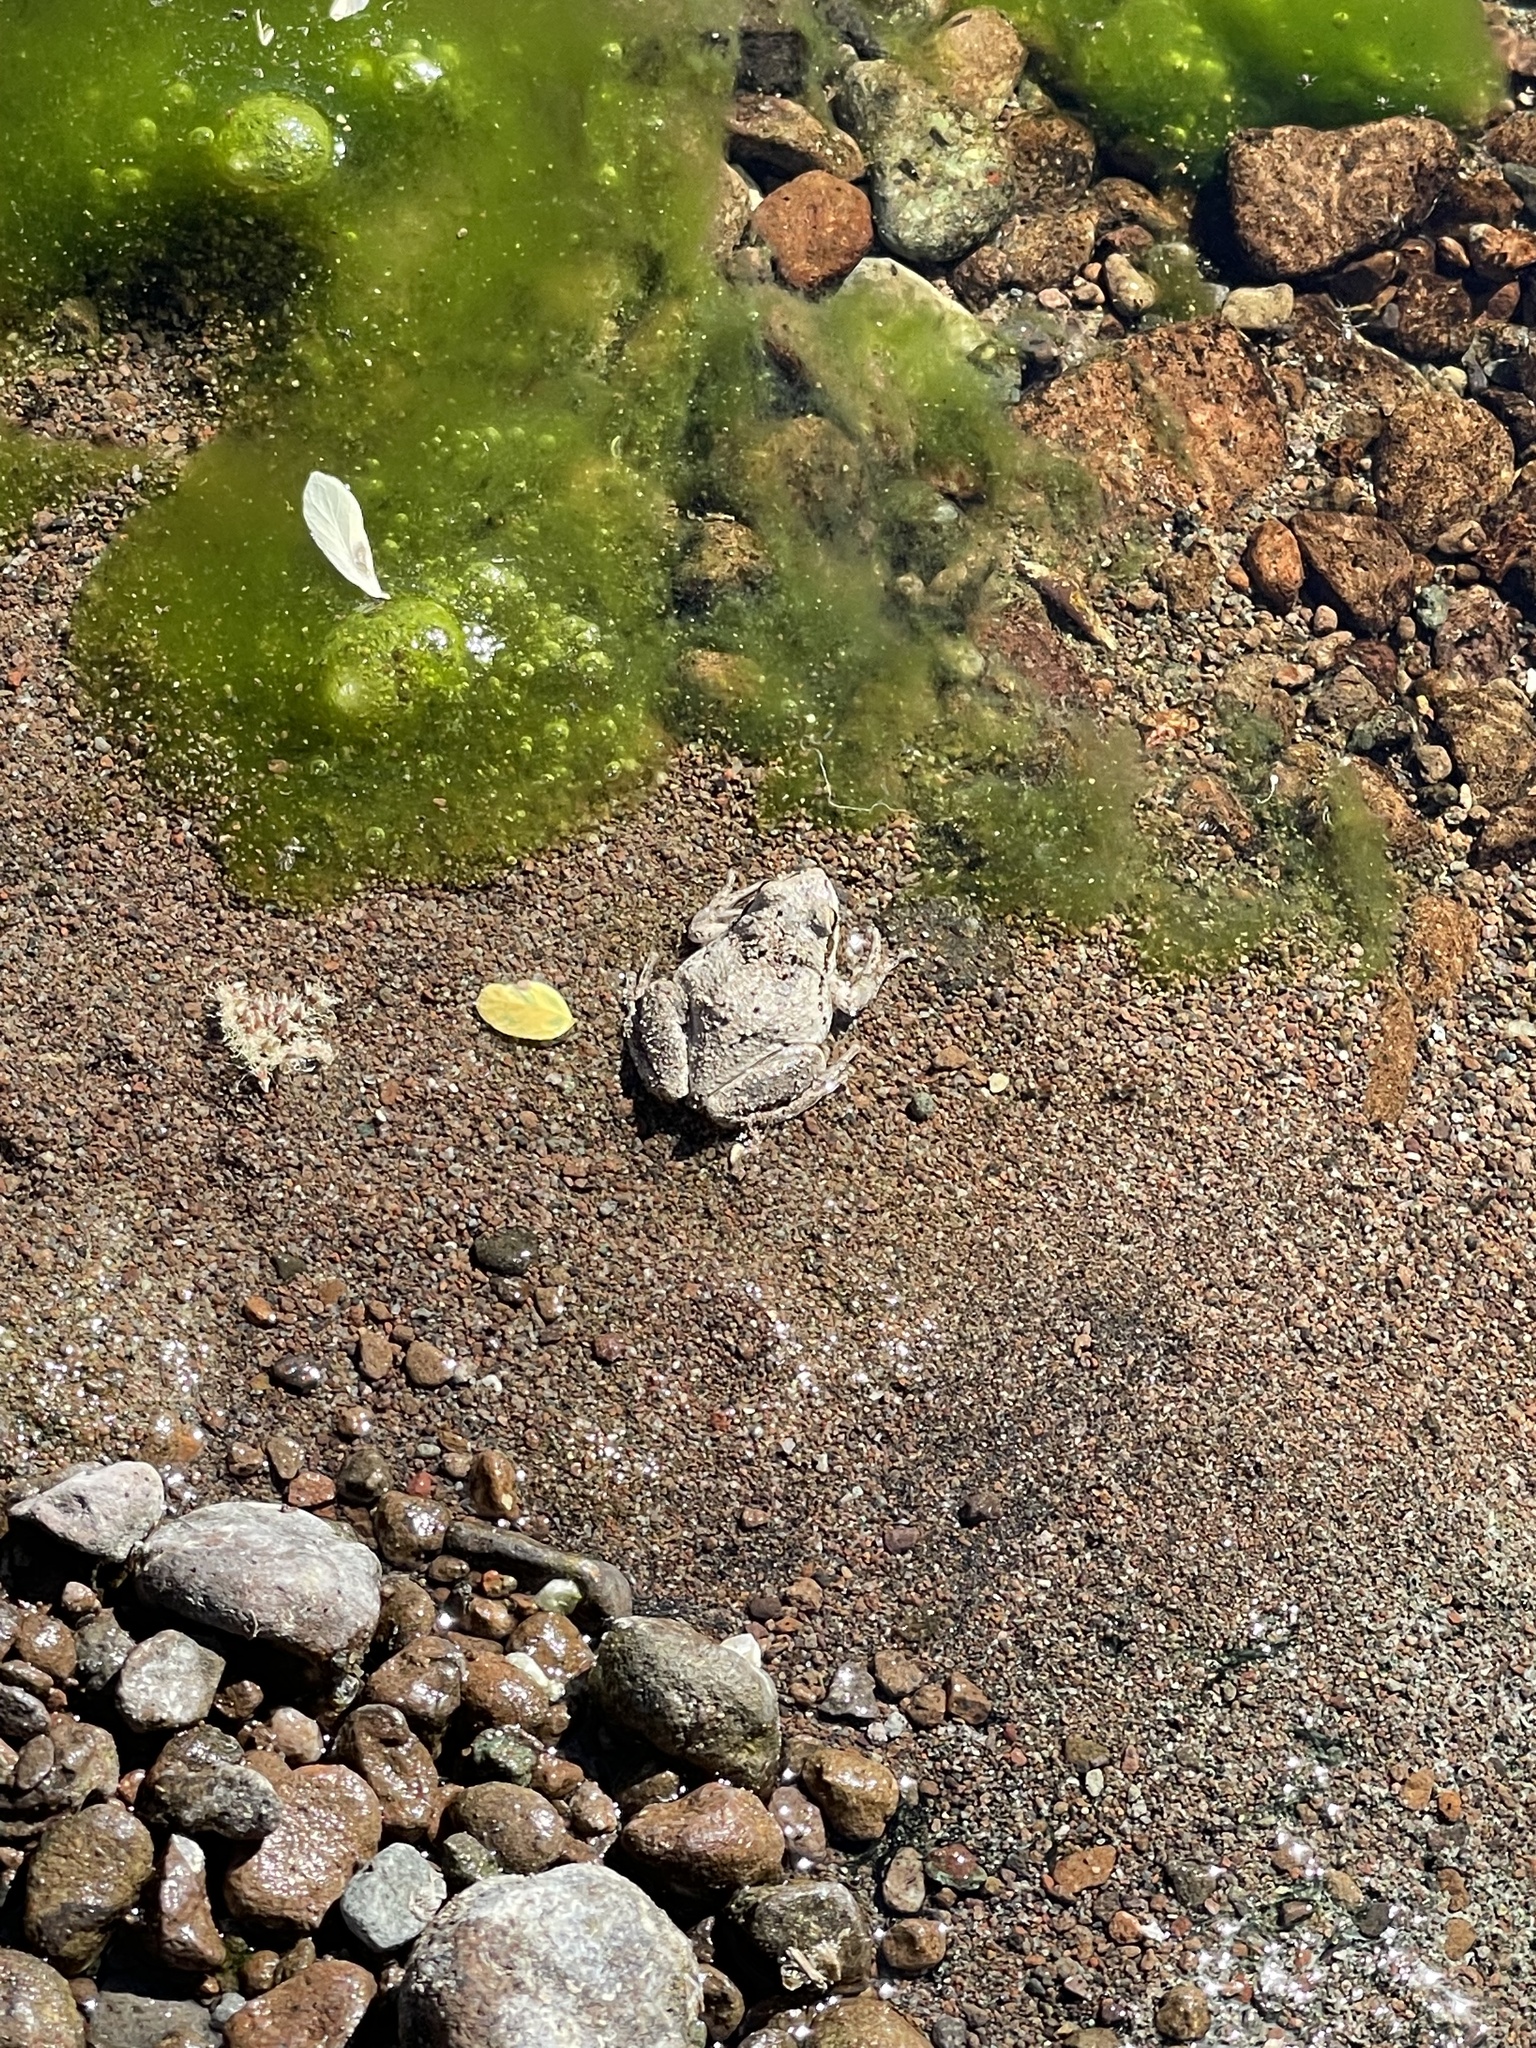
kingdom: Animalia
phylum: Chordata
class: Amphibia
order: Anura
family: Hylidae
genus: Pseudacris
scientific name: Pseudacris regilla
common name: Pacific chorus frog
